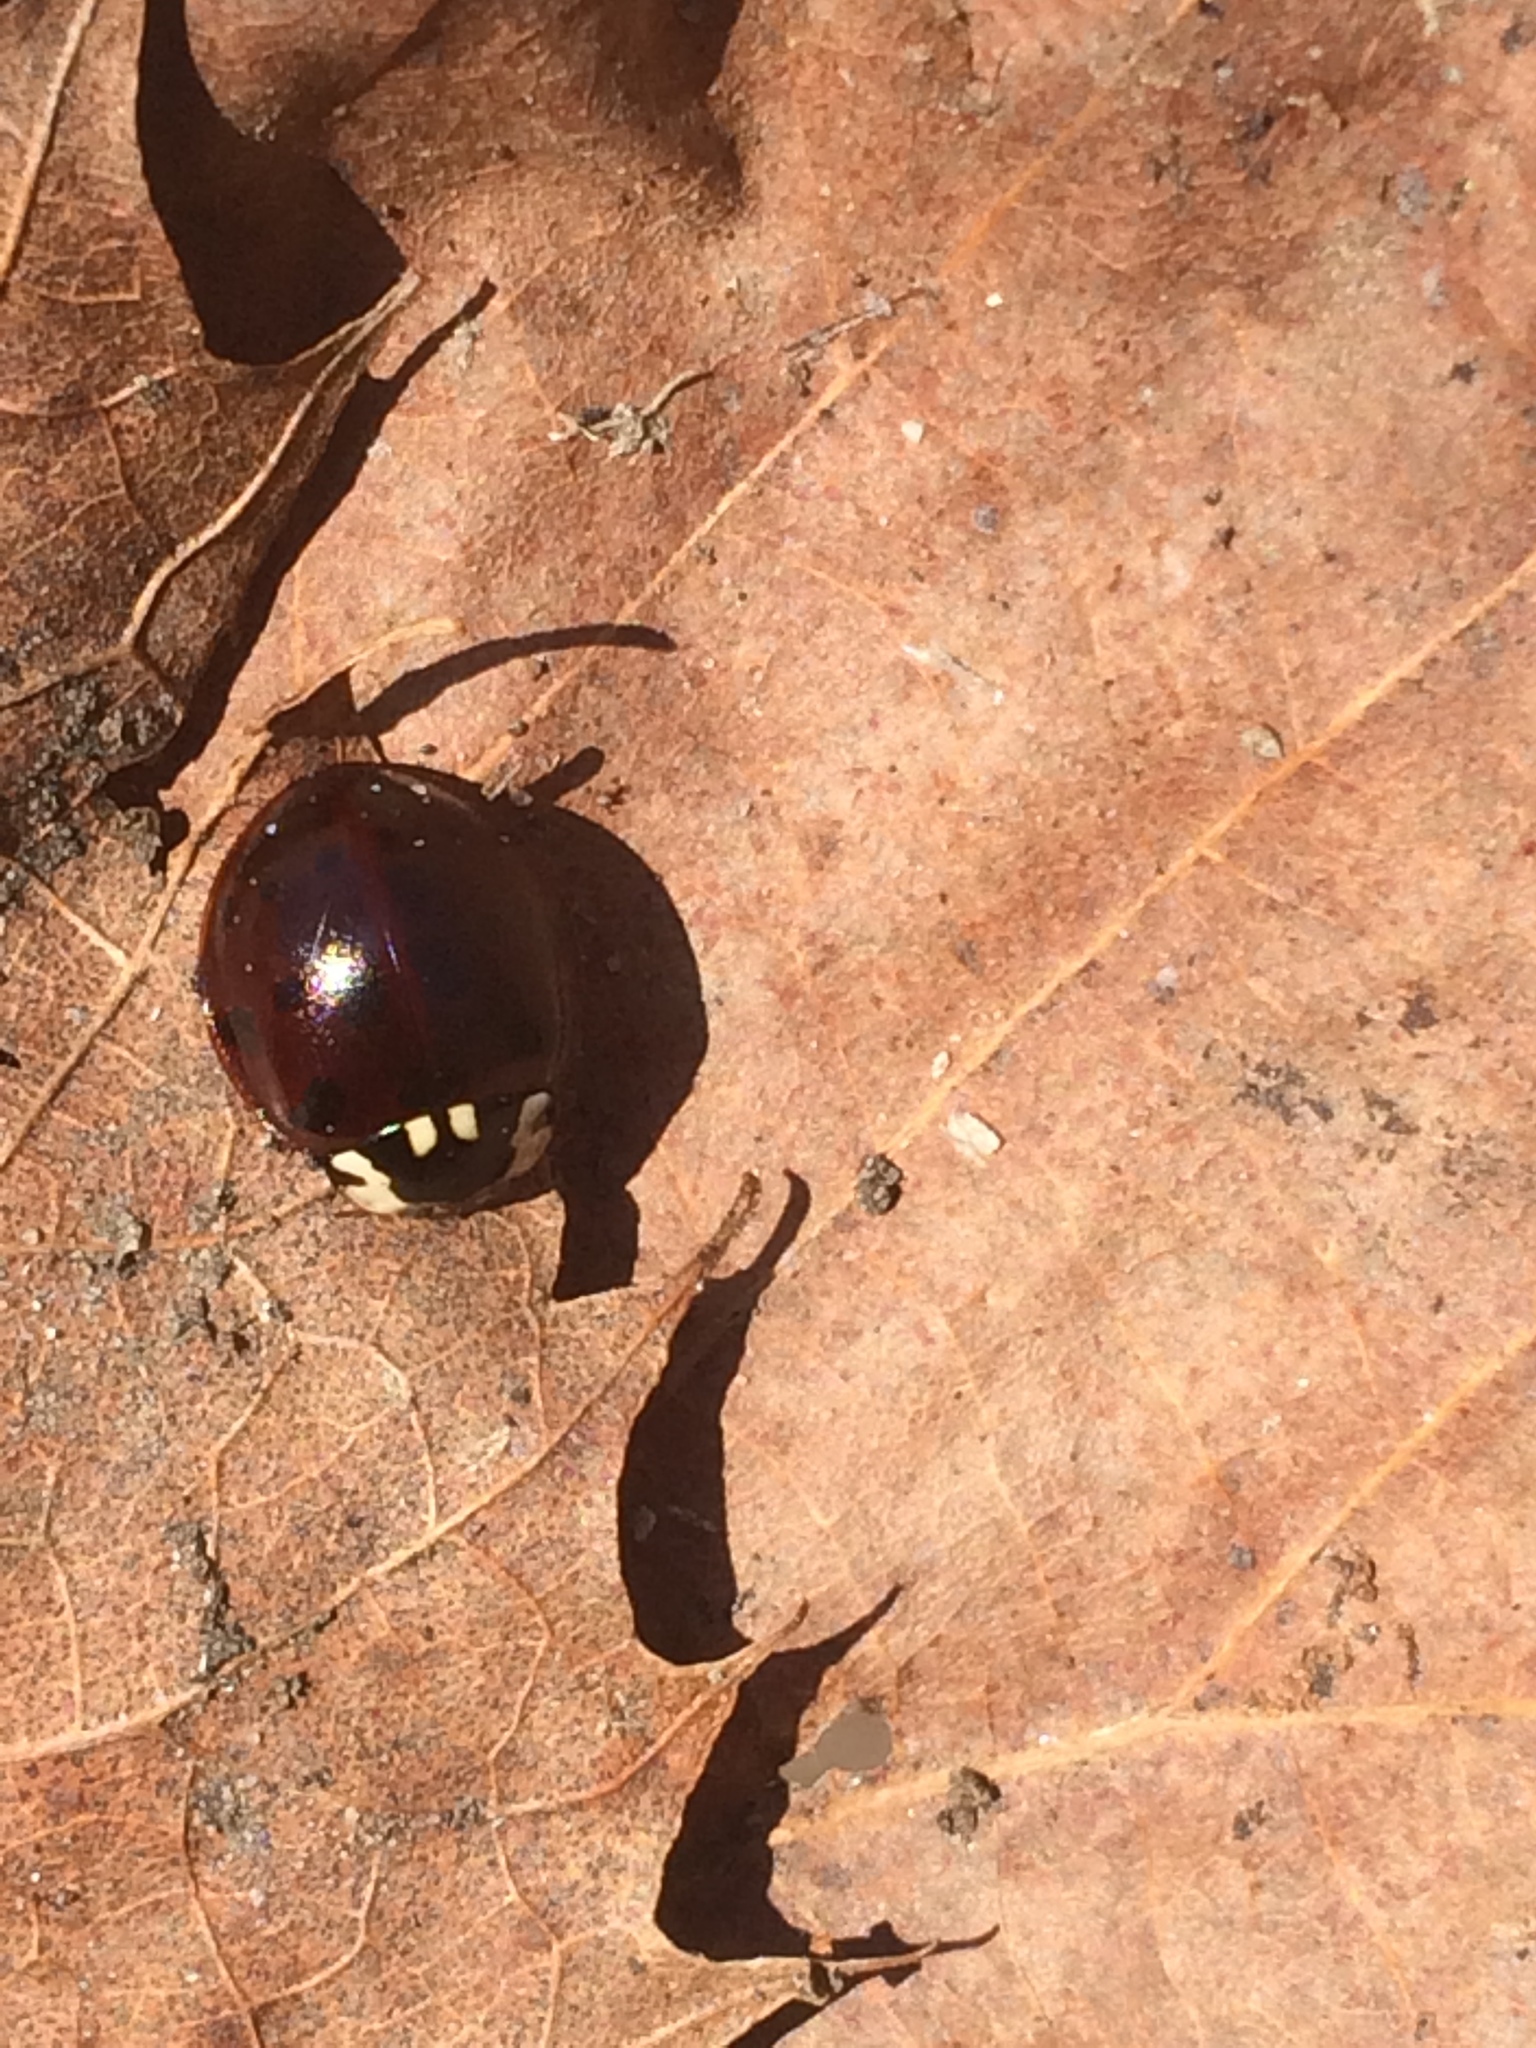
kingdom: Animalia
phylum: Arthropoda
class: Insecta
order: Coleoptera
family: Coccinellidae
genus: Anatis
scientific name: Anatis labiculata
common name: Fifteen-spotted lady beetle
